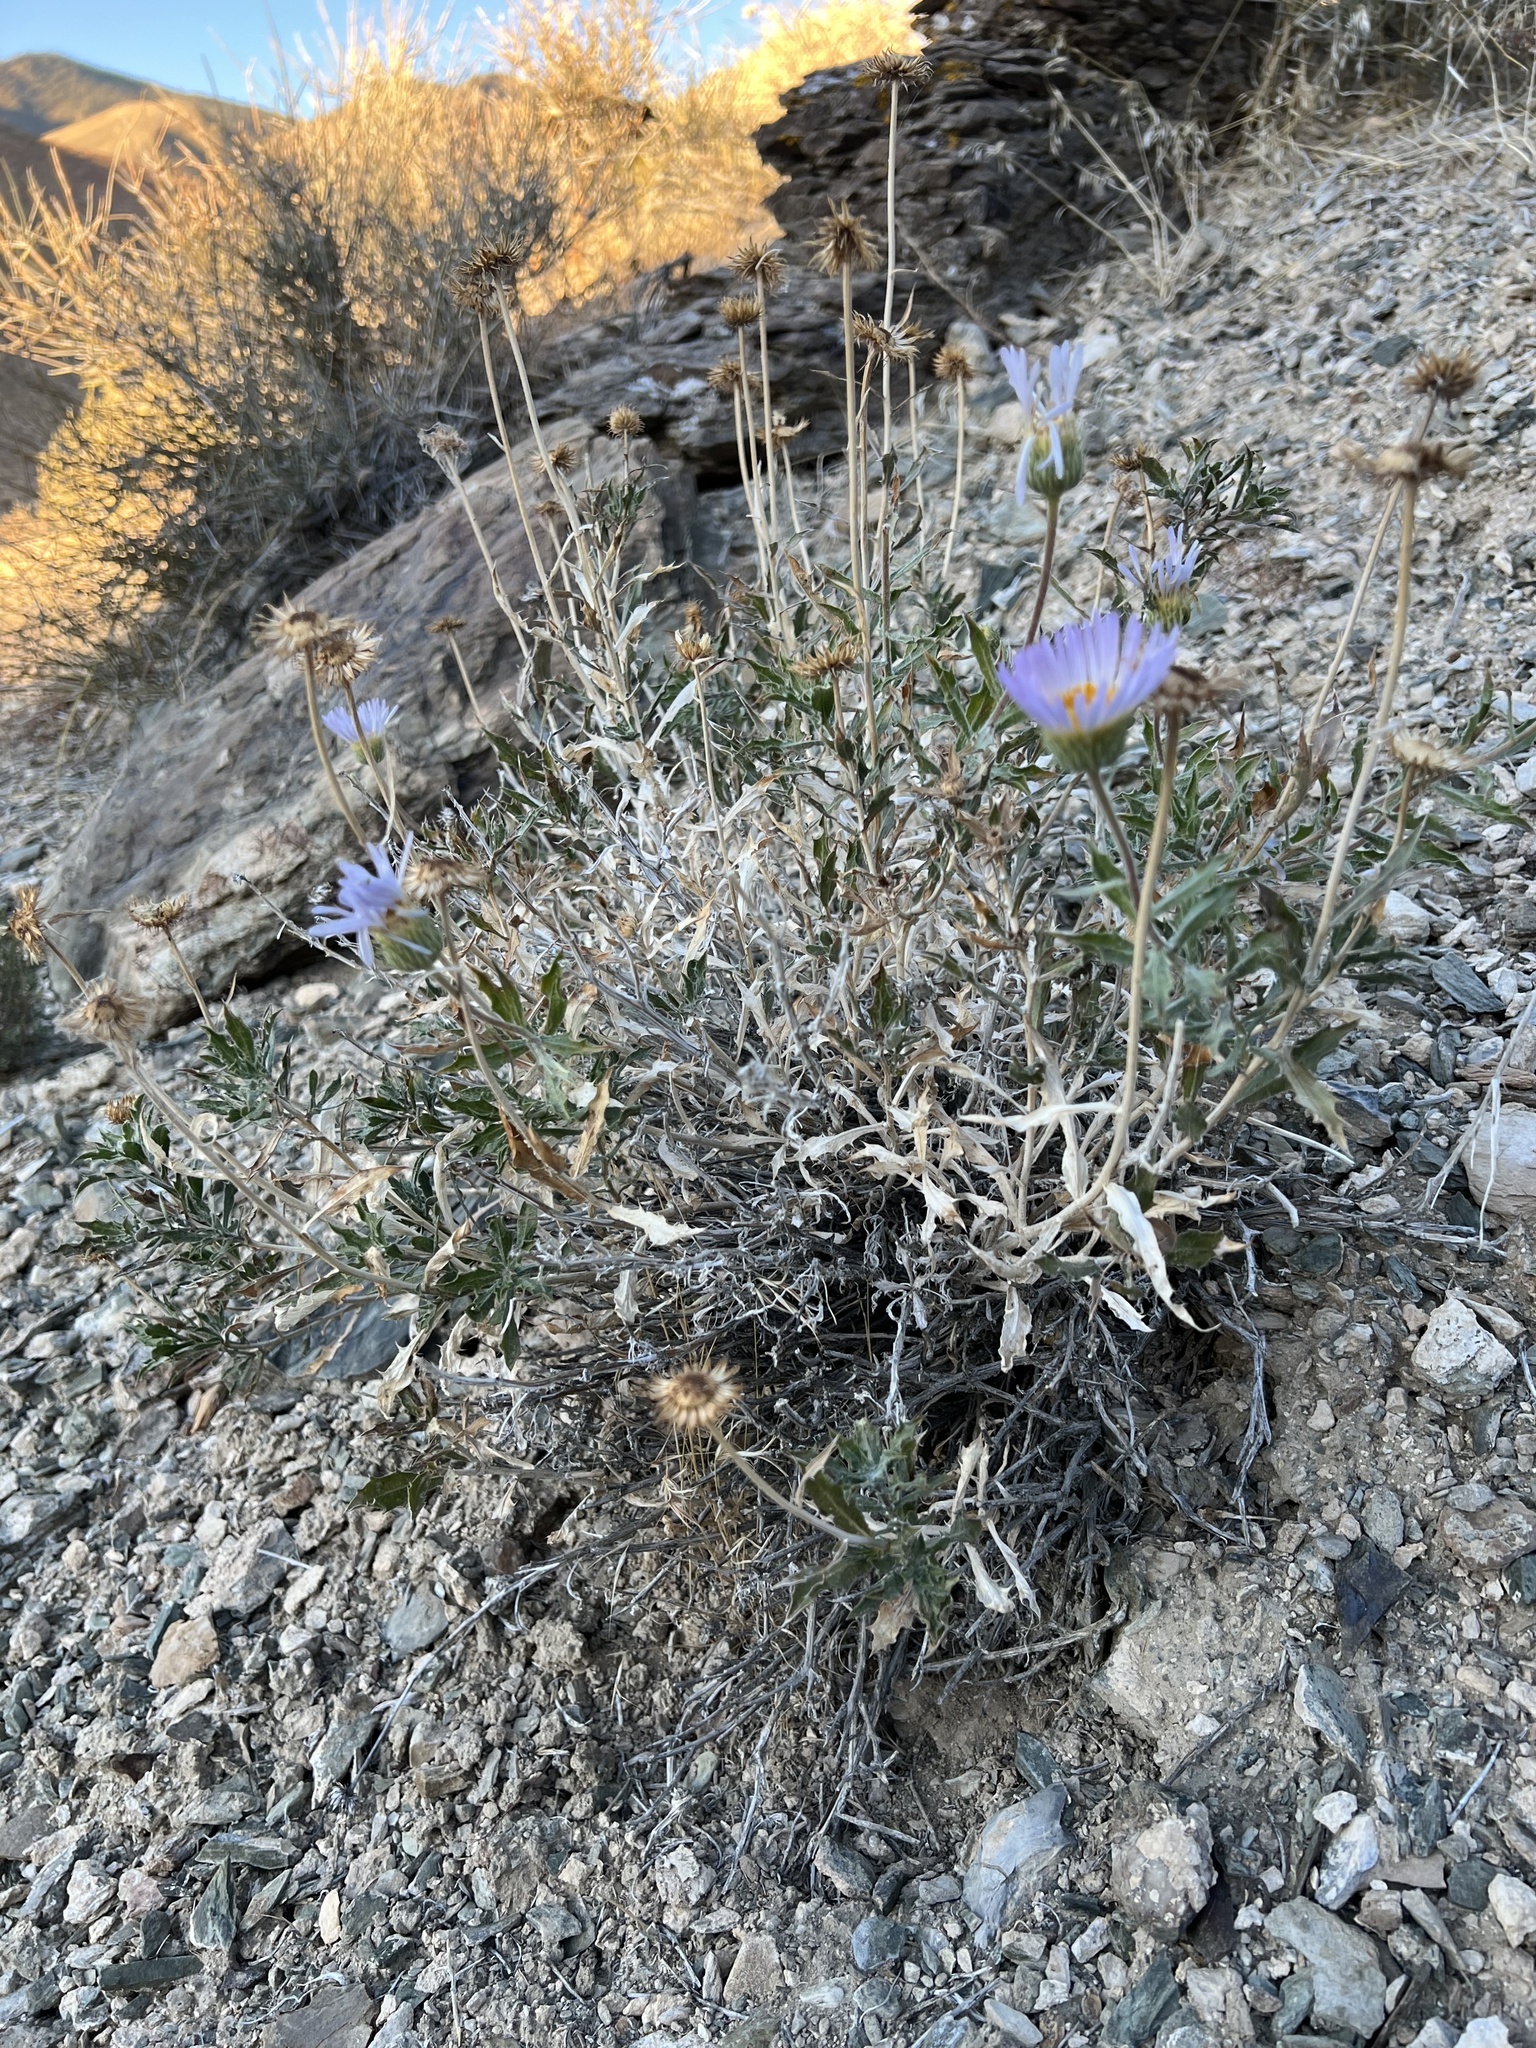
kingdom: Plantae
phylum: Tracheophyta
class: Magnoliopsida
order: Asterales
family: Asteraceae
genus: Xylorhiza
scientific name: Xylorhiza tortifolia
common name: Hurt-leaf woody-aster
